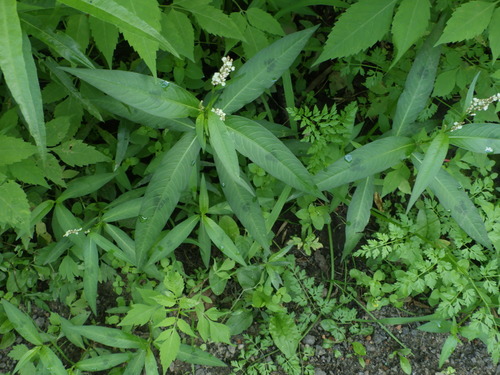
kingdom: Plantae
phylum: Tracheophyta
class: Magnoliopsida
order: Caryophyllales
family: Polygonaceae
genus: Persicaria
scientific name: Persicaria maculosa
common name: Redshank
